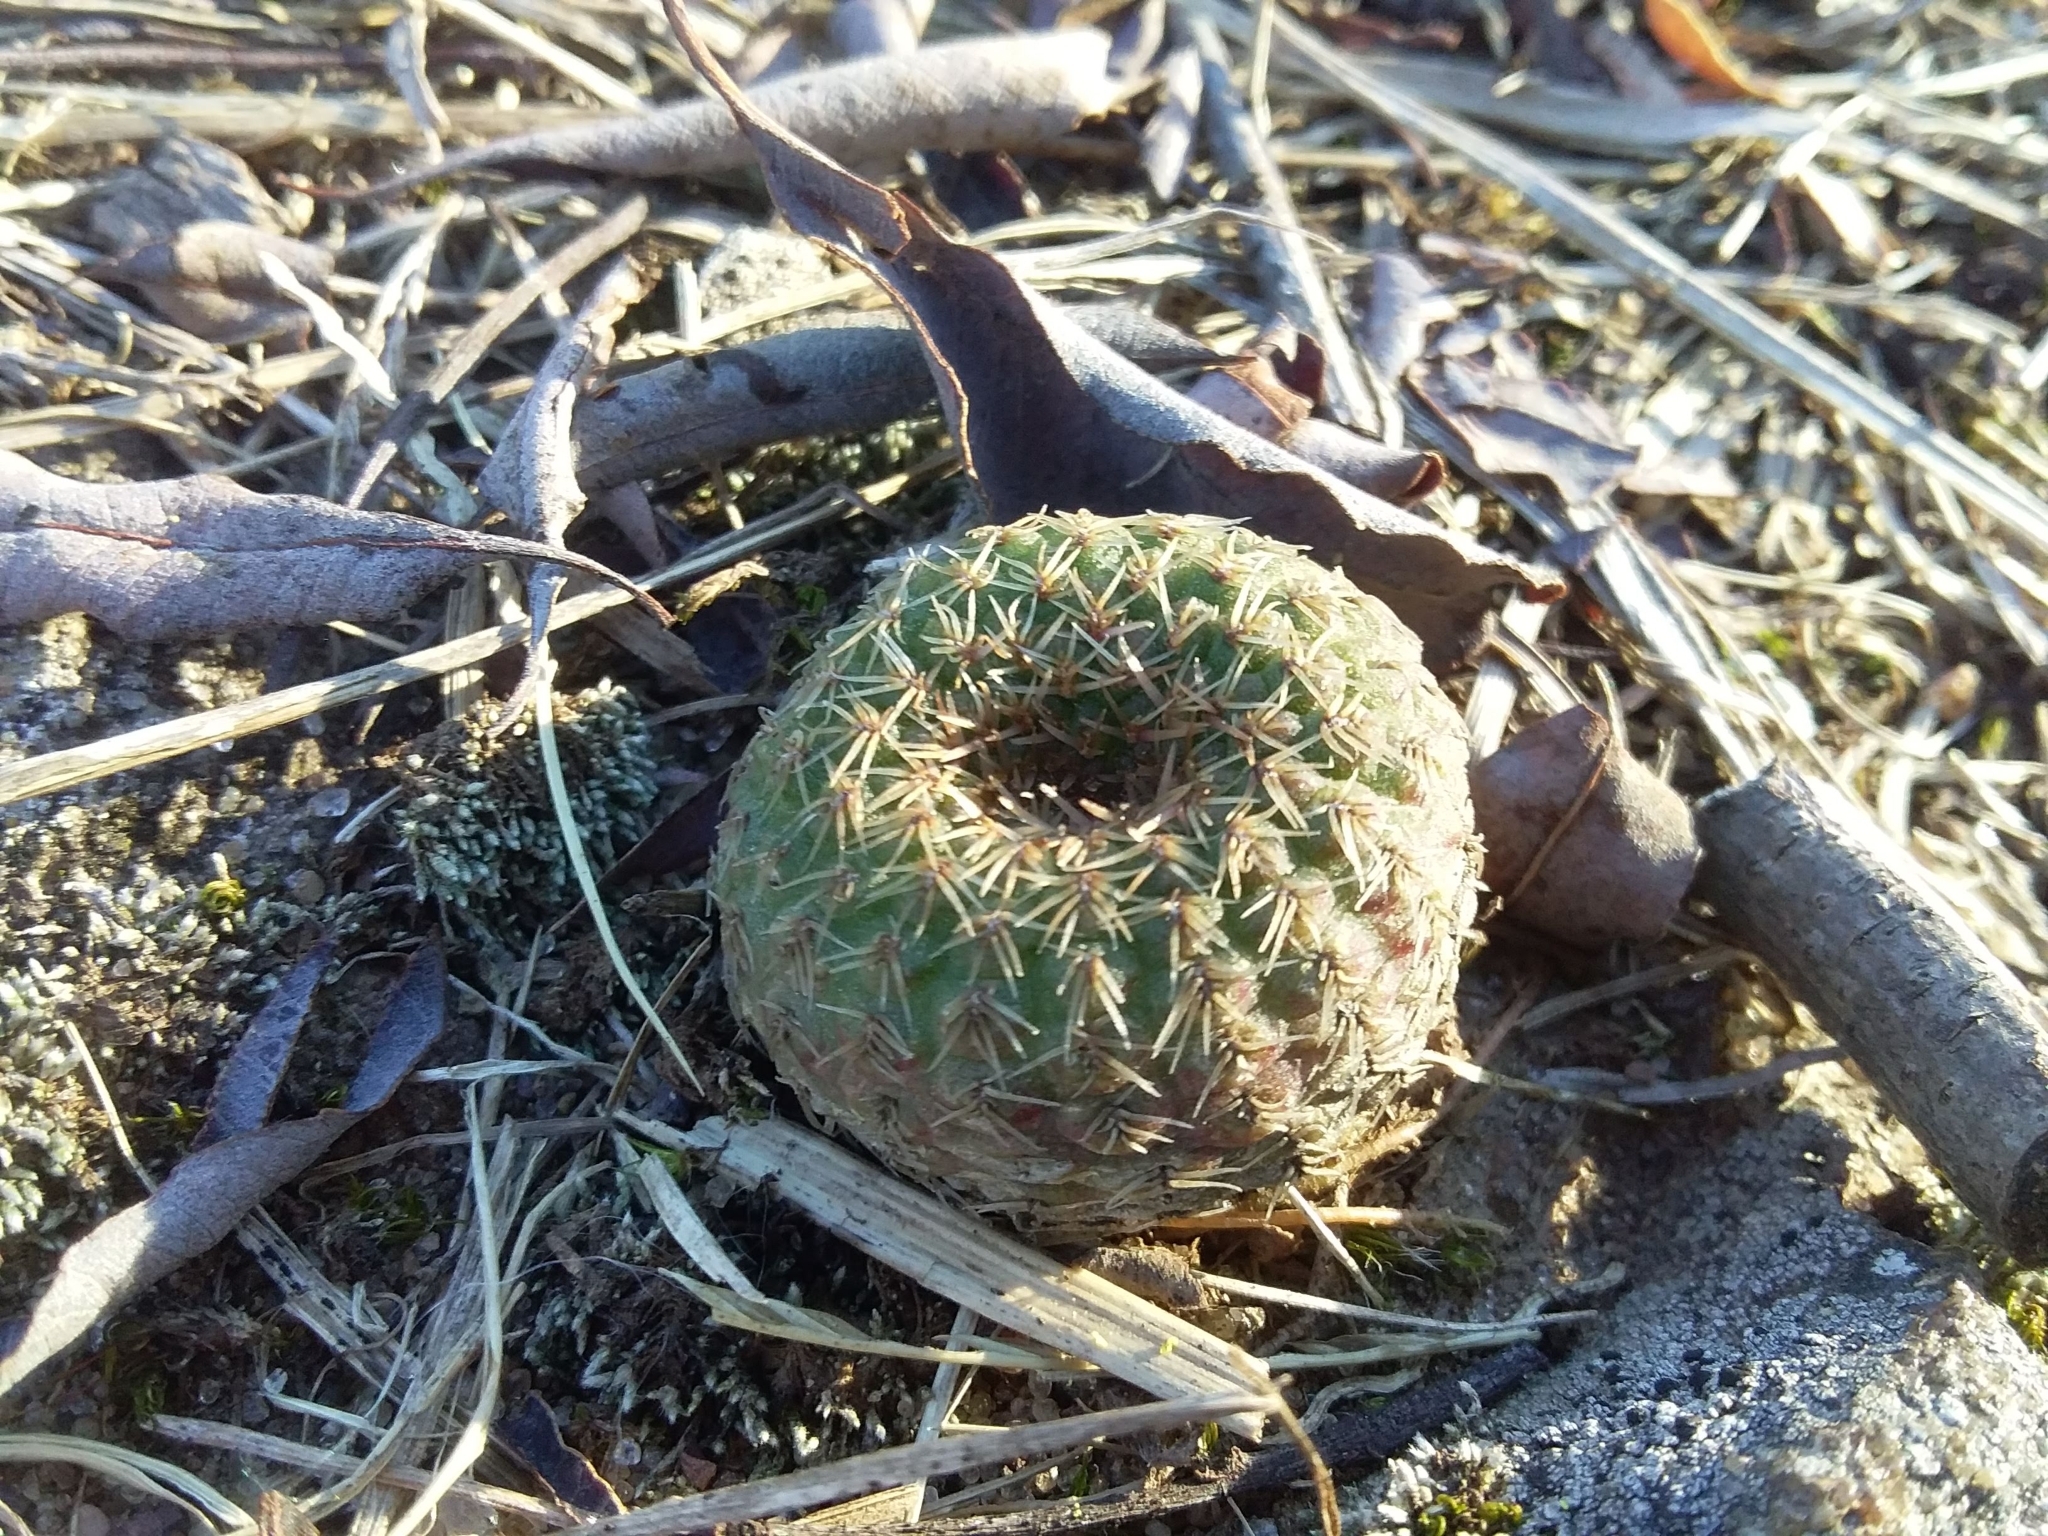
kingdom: Plantae
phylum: Tracheophyta
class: Magnoliopsida
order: Caryophyllales
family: Cactaceae
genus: Frailea
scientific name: Frailea pygmaea
